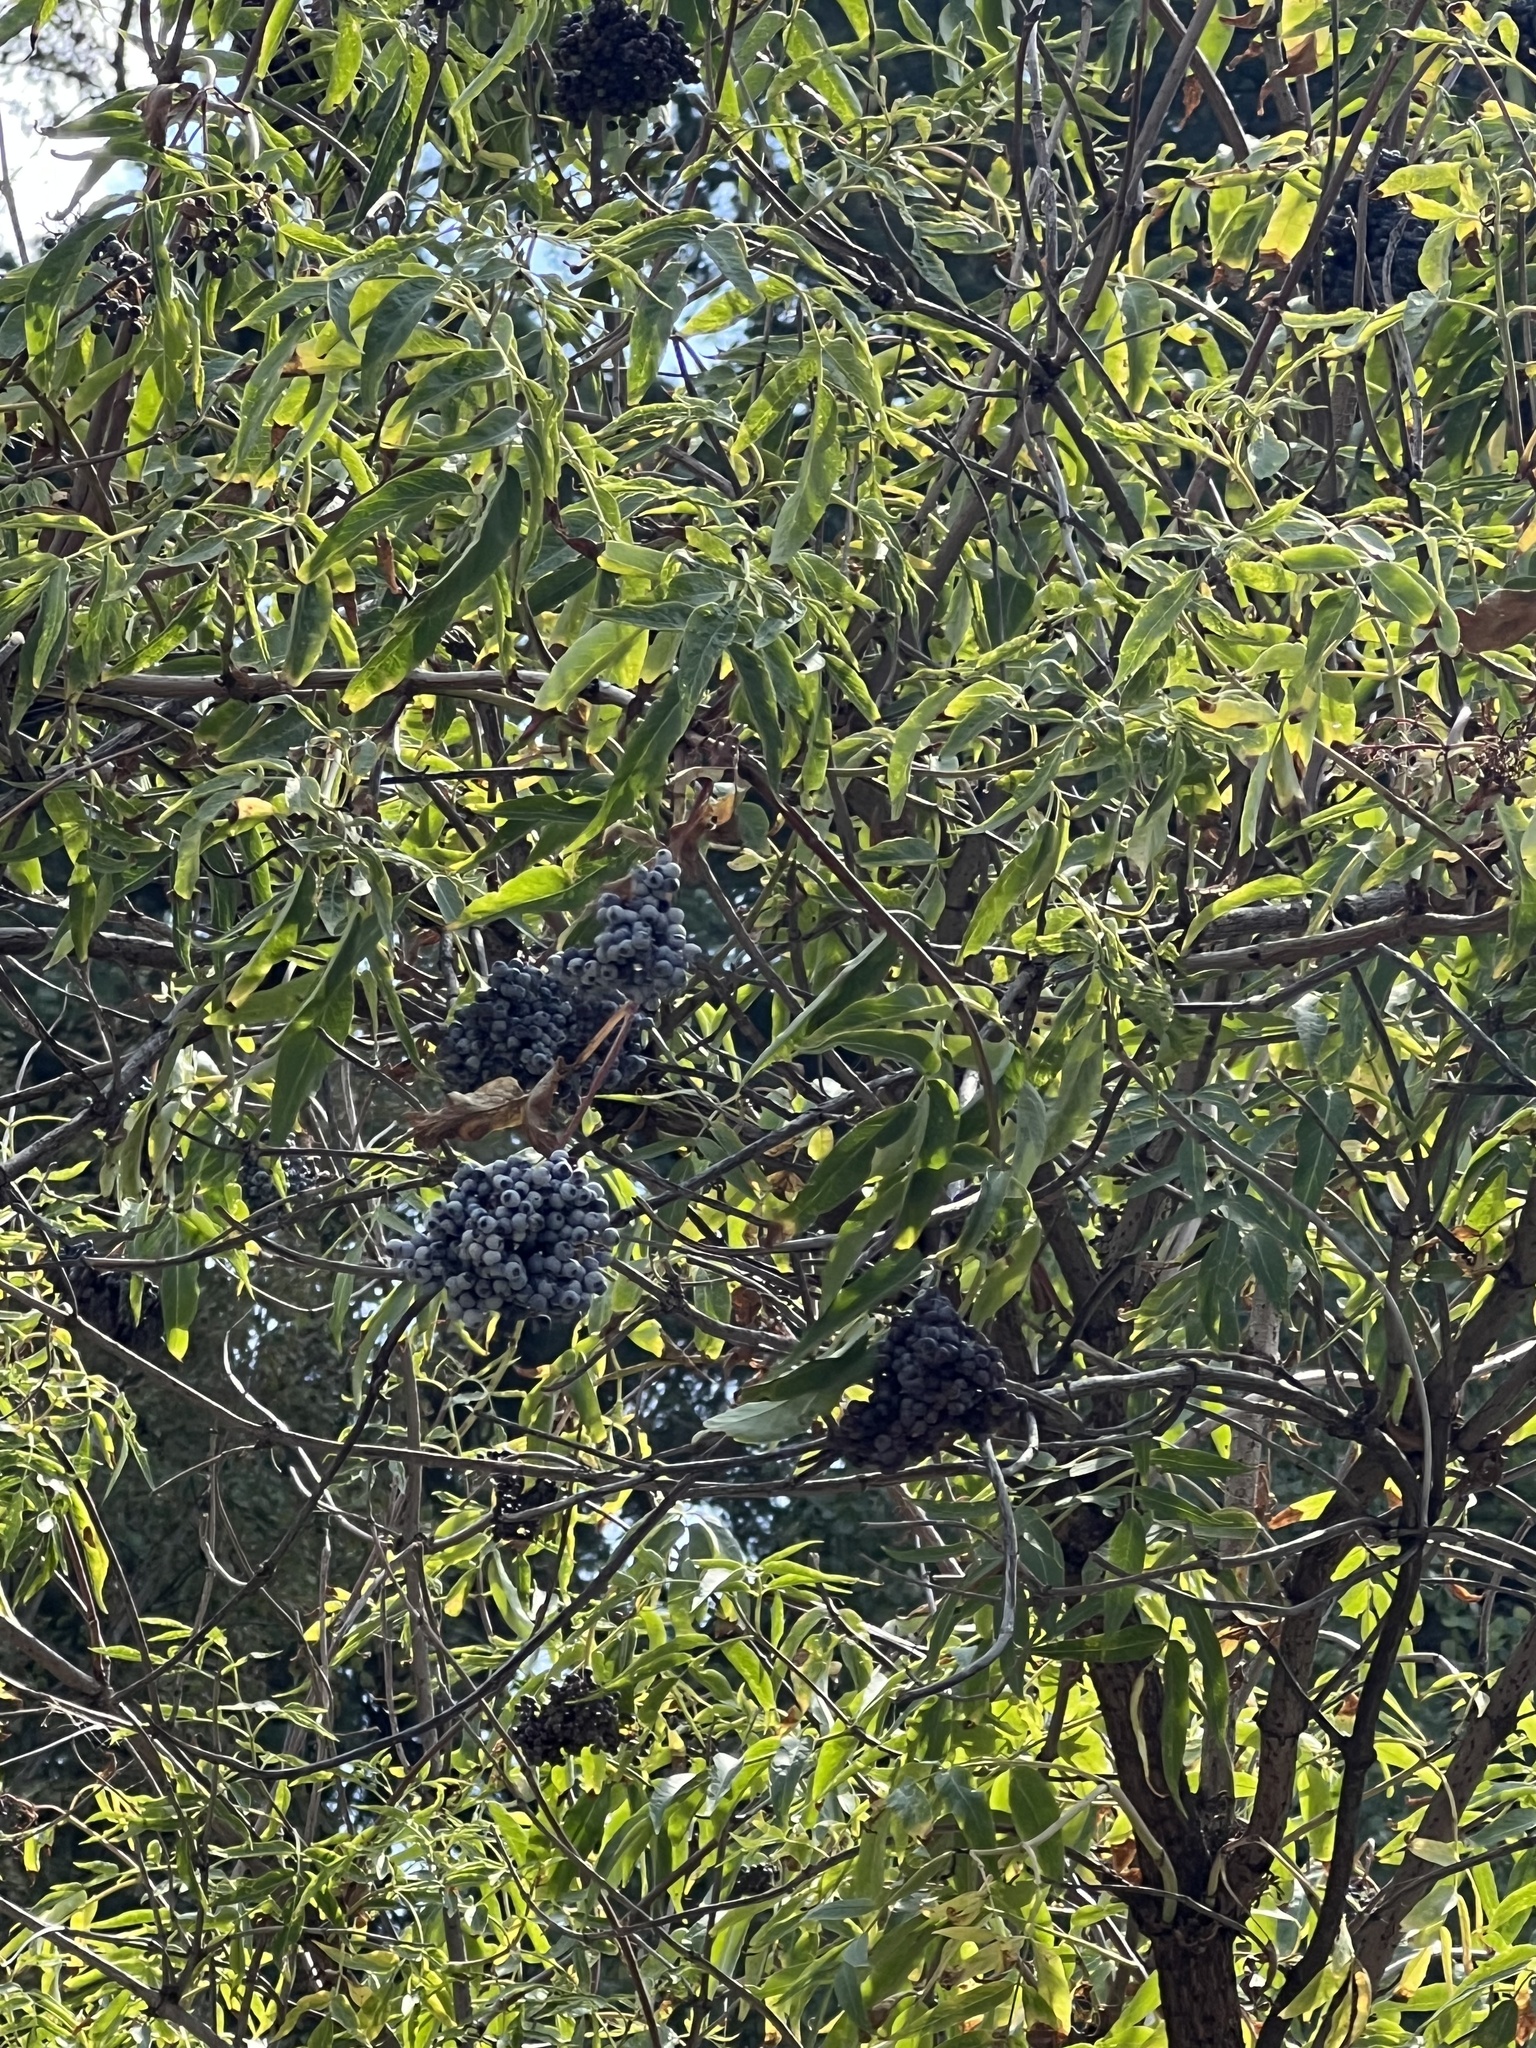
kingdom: Plantae
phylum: Tracheophyta
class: Magnoliopsida
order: Dipsacales
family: Viburnaceae
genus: Sambucus
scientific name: Sambucus cerulea
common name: Blue elder
